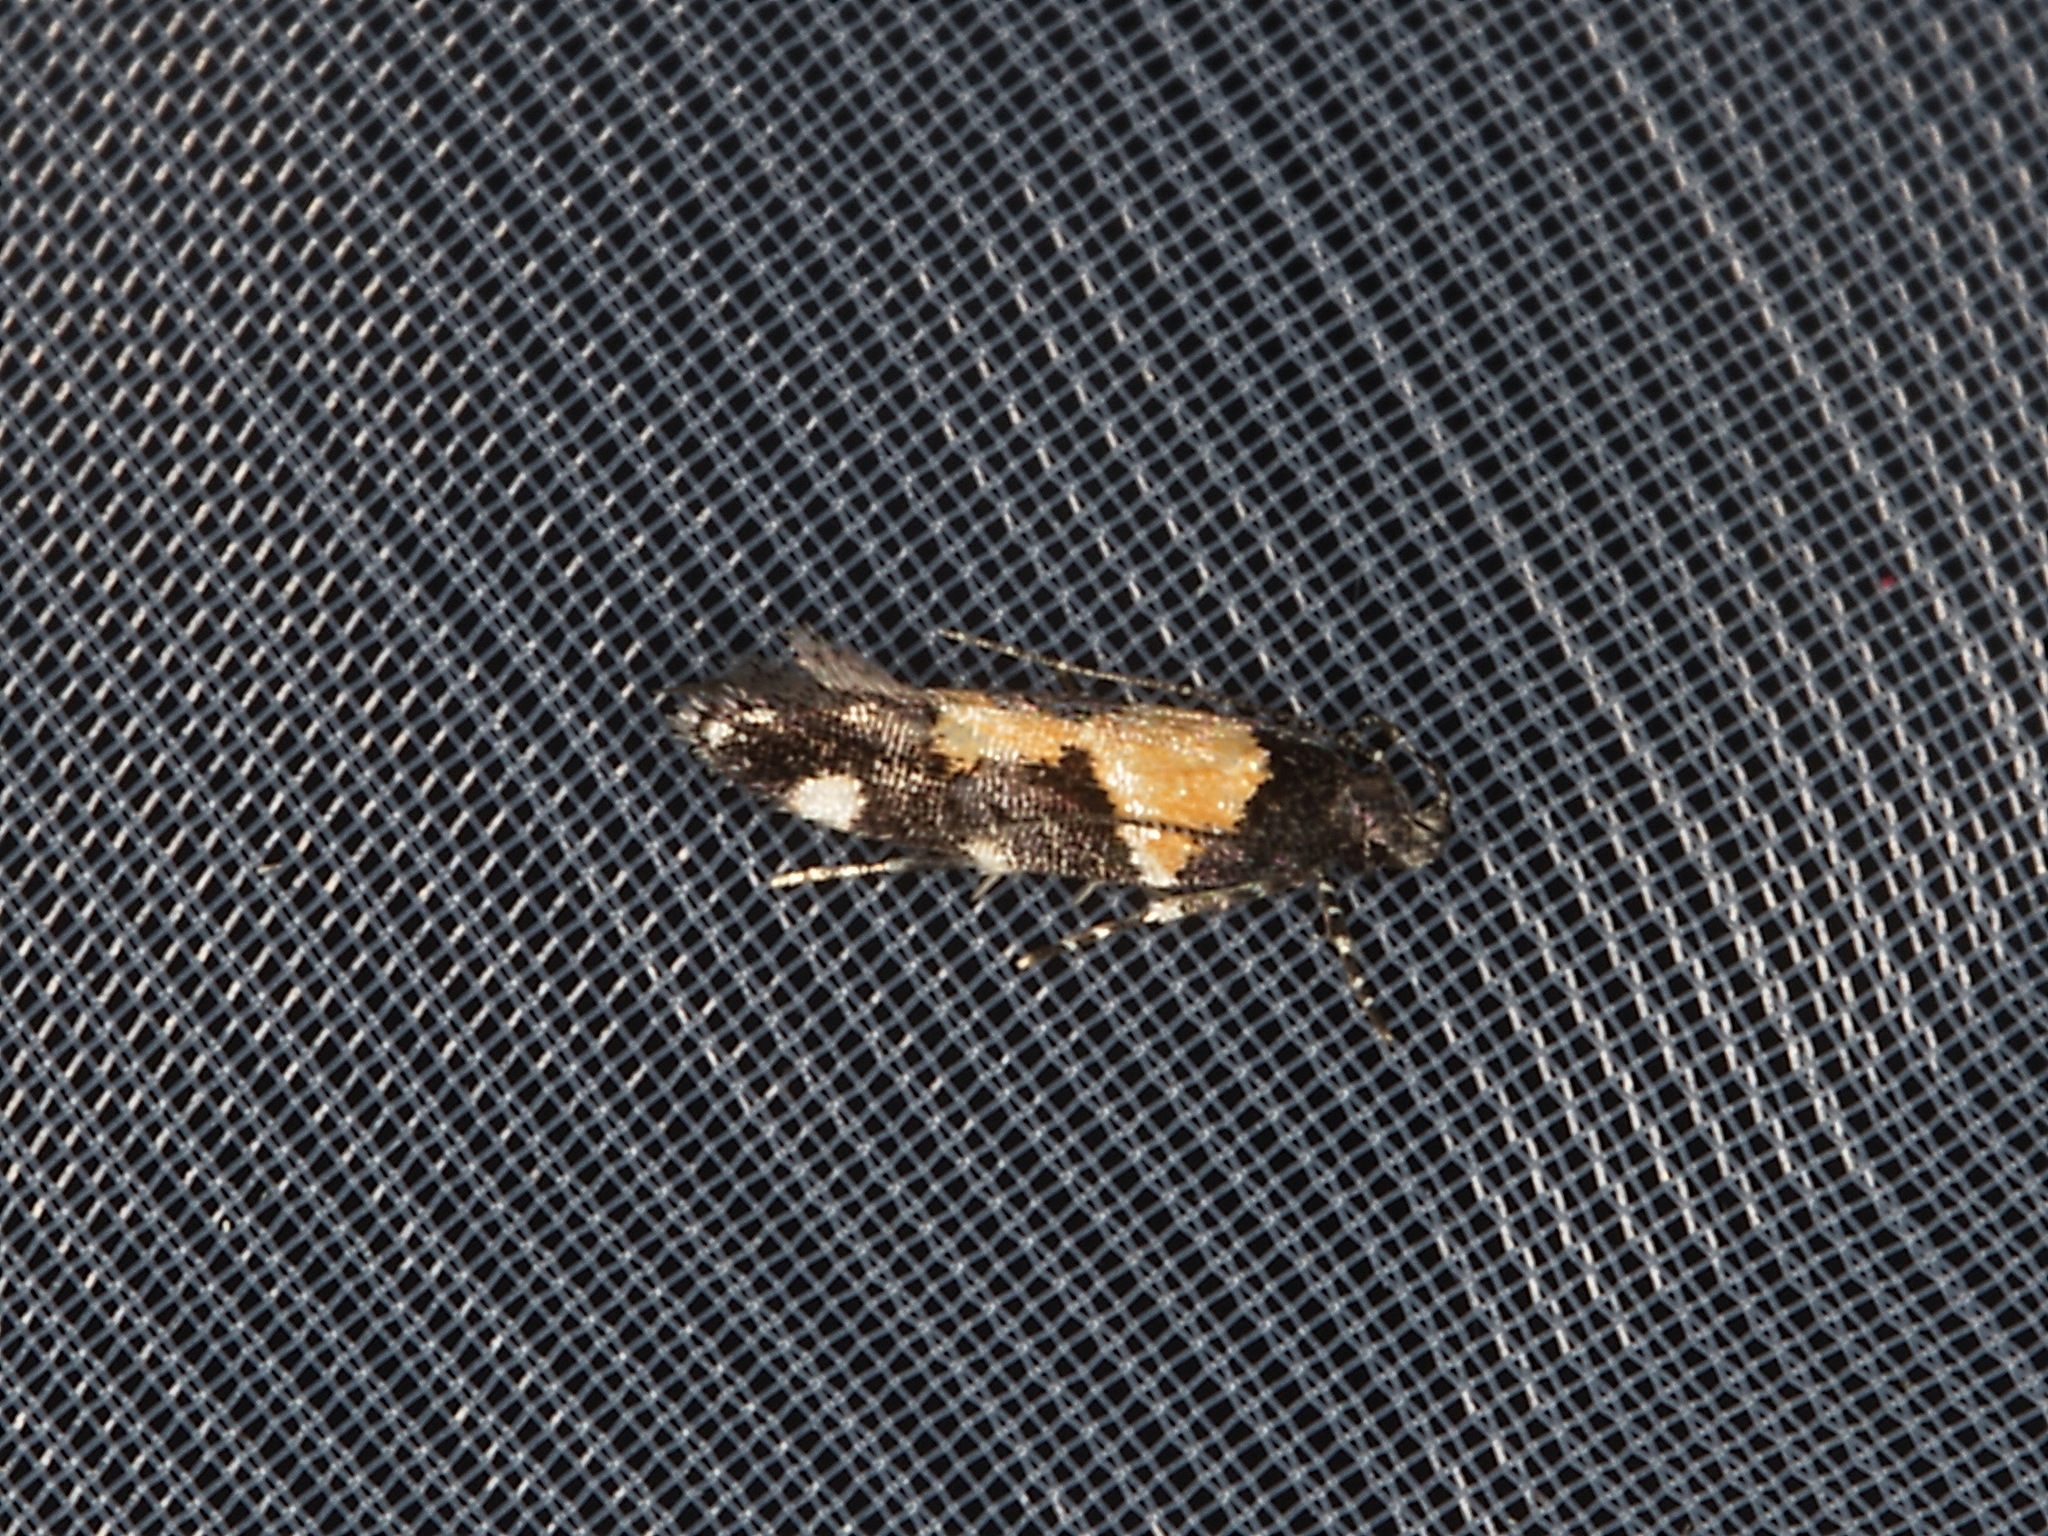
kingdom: Animalia
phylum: Arthropoda
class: Insecta
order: Lepidoptera
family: Gelechiidae
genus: Stegasta
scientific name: Stegasta bosqueella
